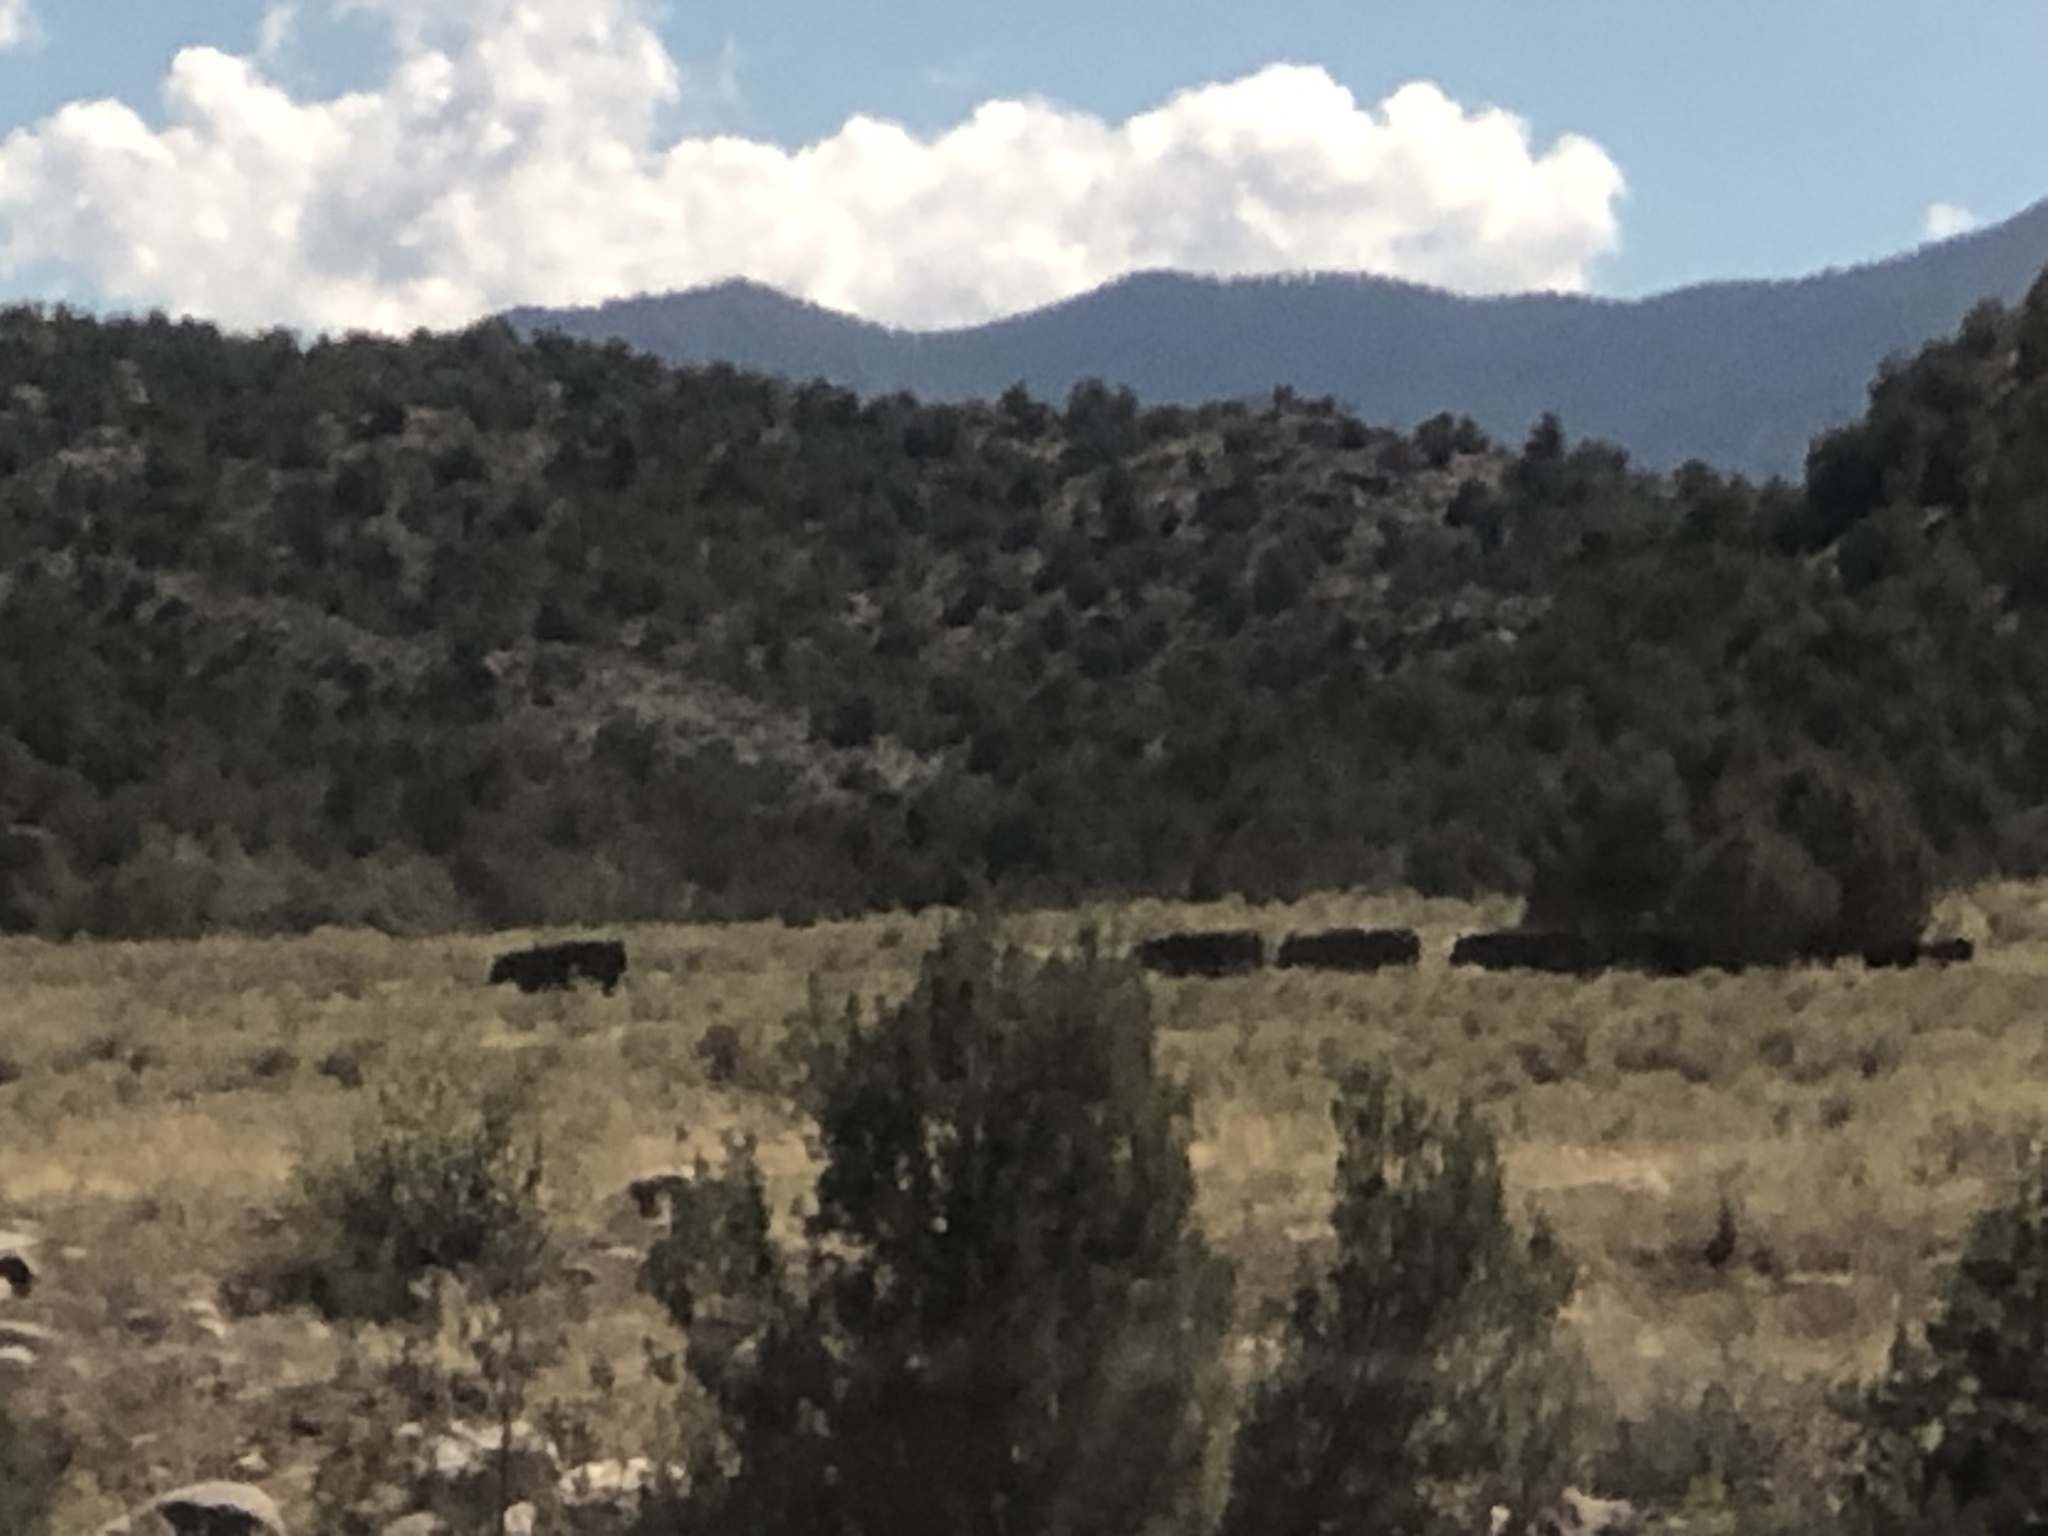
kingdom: Animalia
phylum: Chordata
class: Mammalia
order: Artiodactyla
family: Bovidae
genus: Bos
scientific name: Bos taurus
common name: Domesticated cattle
